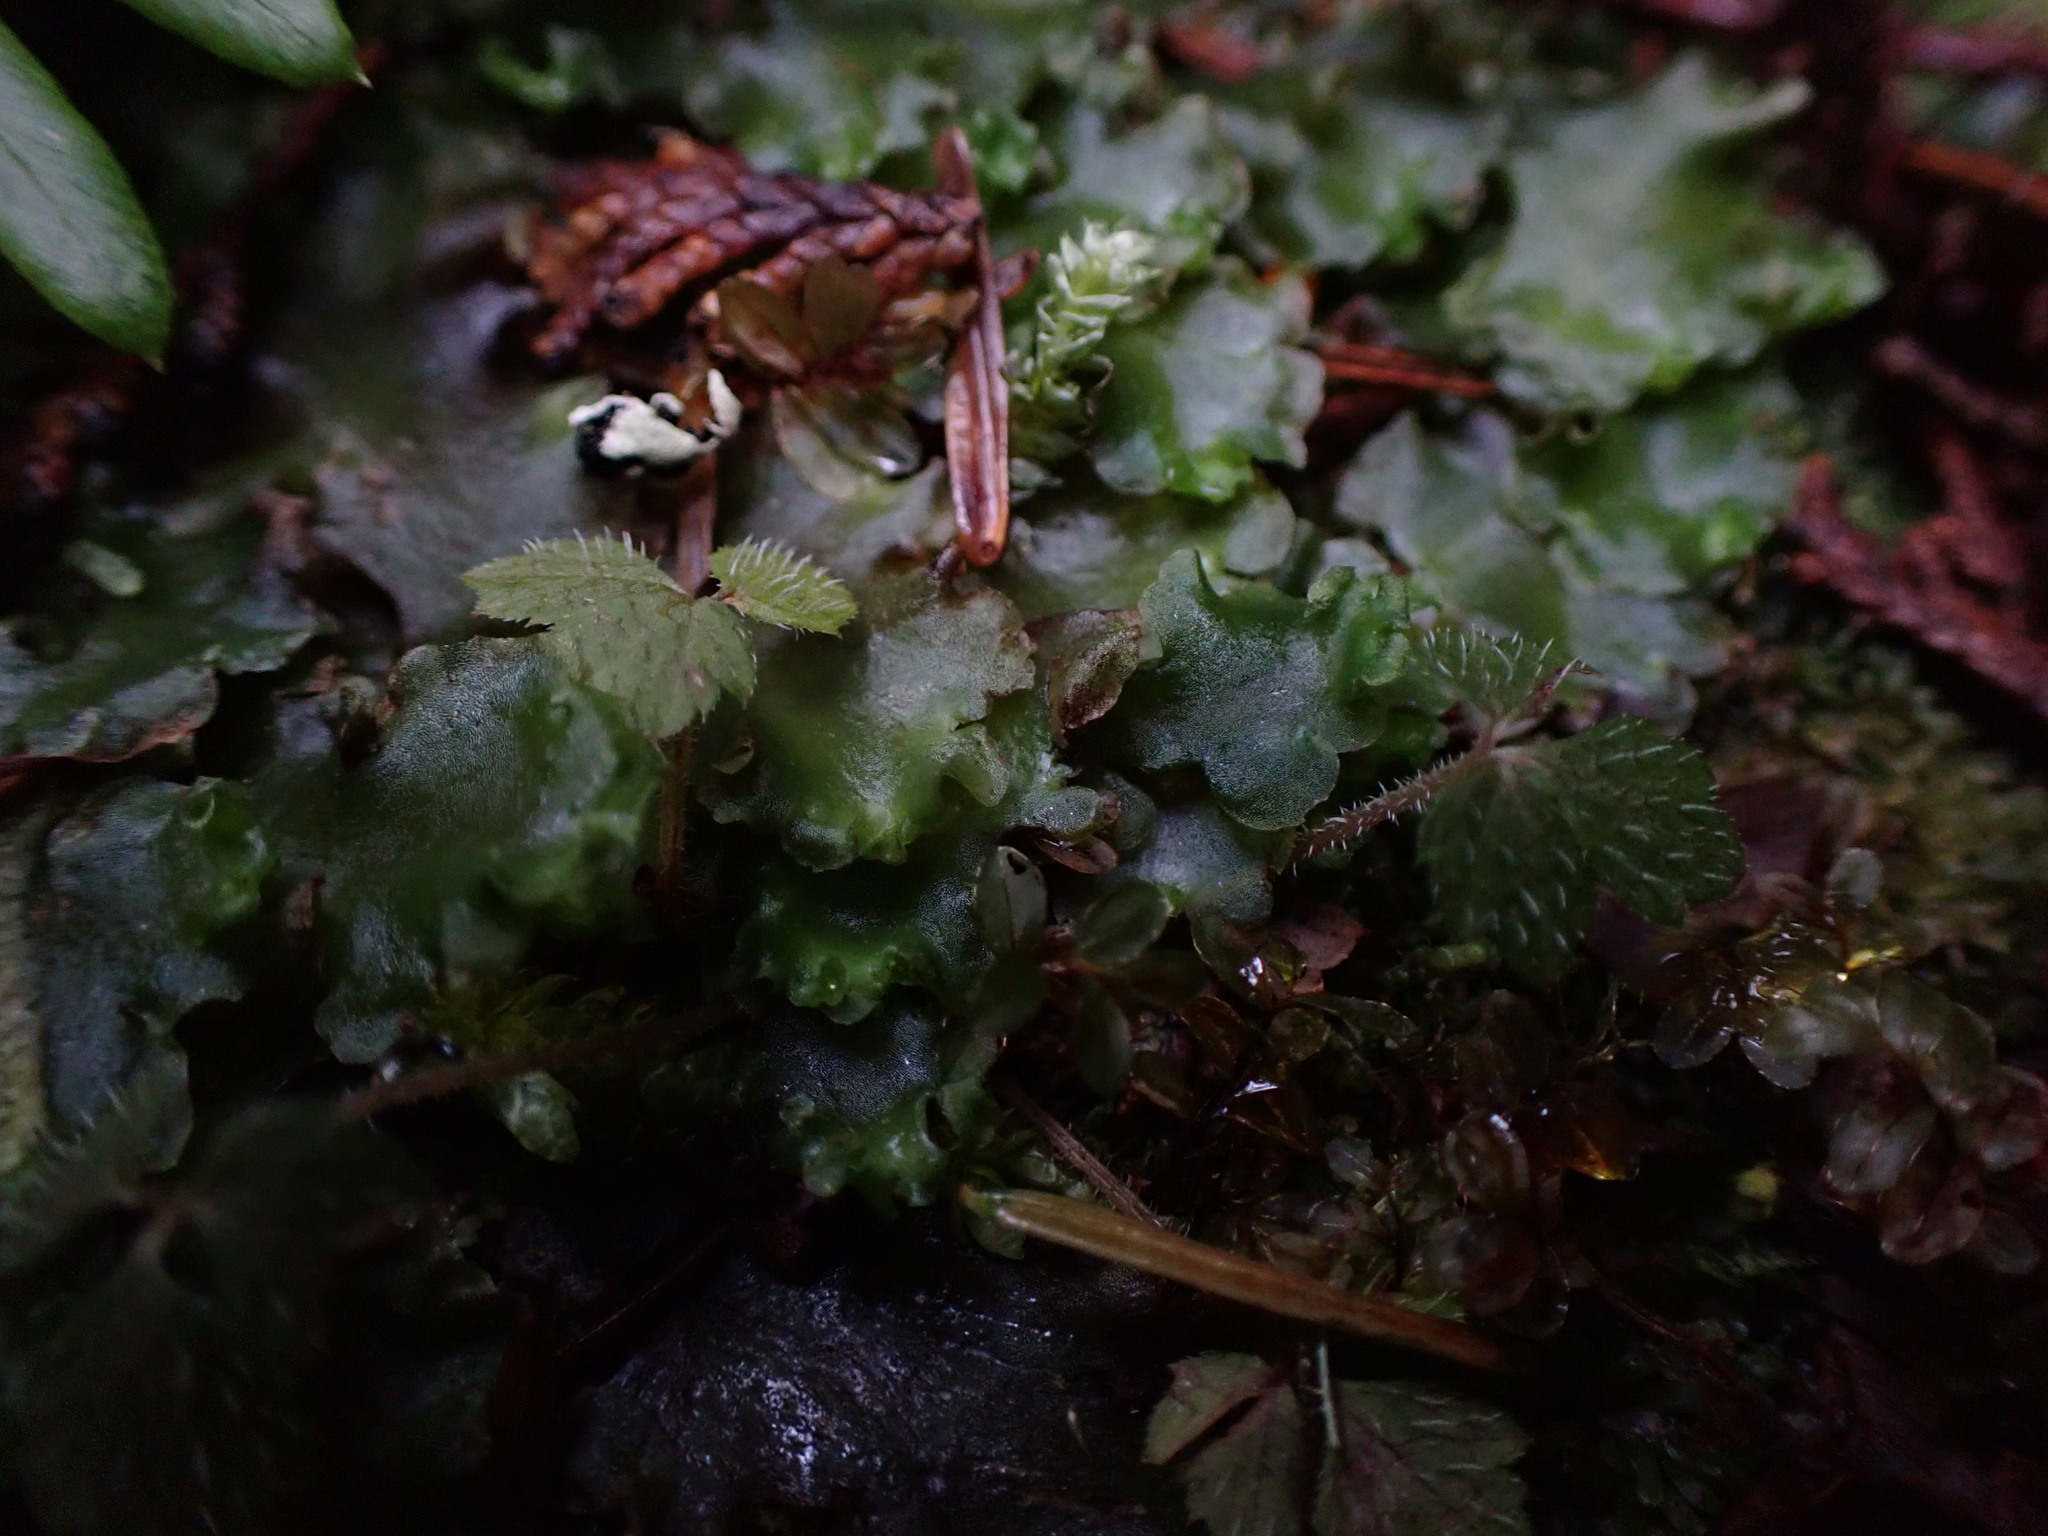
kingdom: Plantae
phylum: Marchantiophyta
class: Jungermanniopsida
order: Pelliales
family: Pelliaceae
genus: Pellia
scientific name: Pellia neesiana
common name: Nees  pellia
